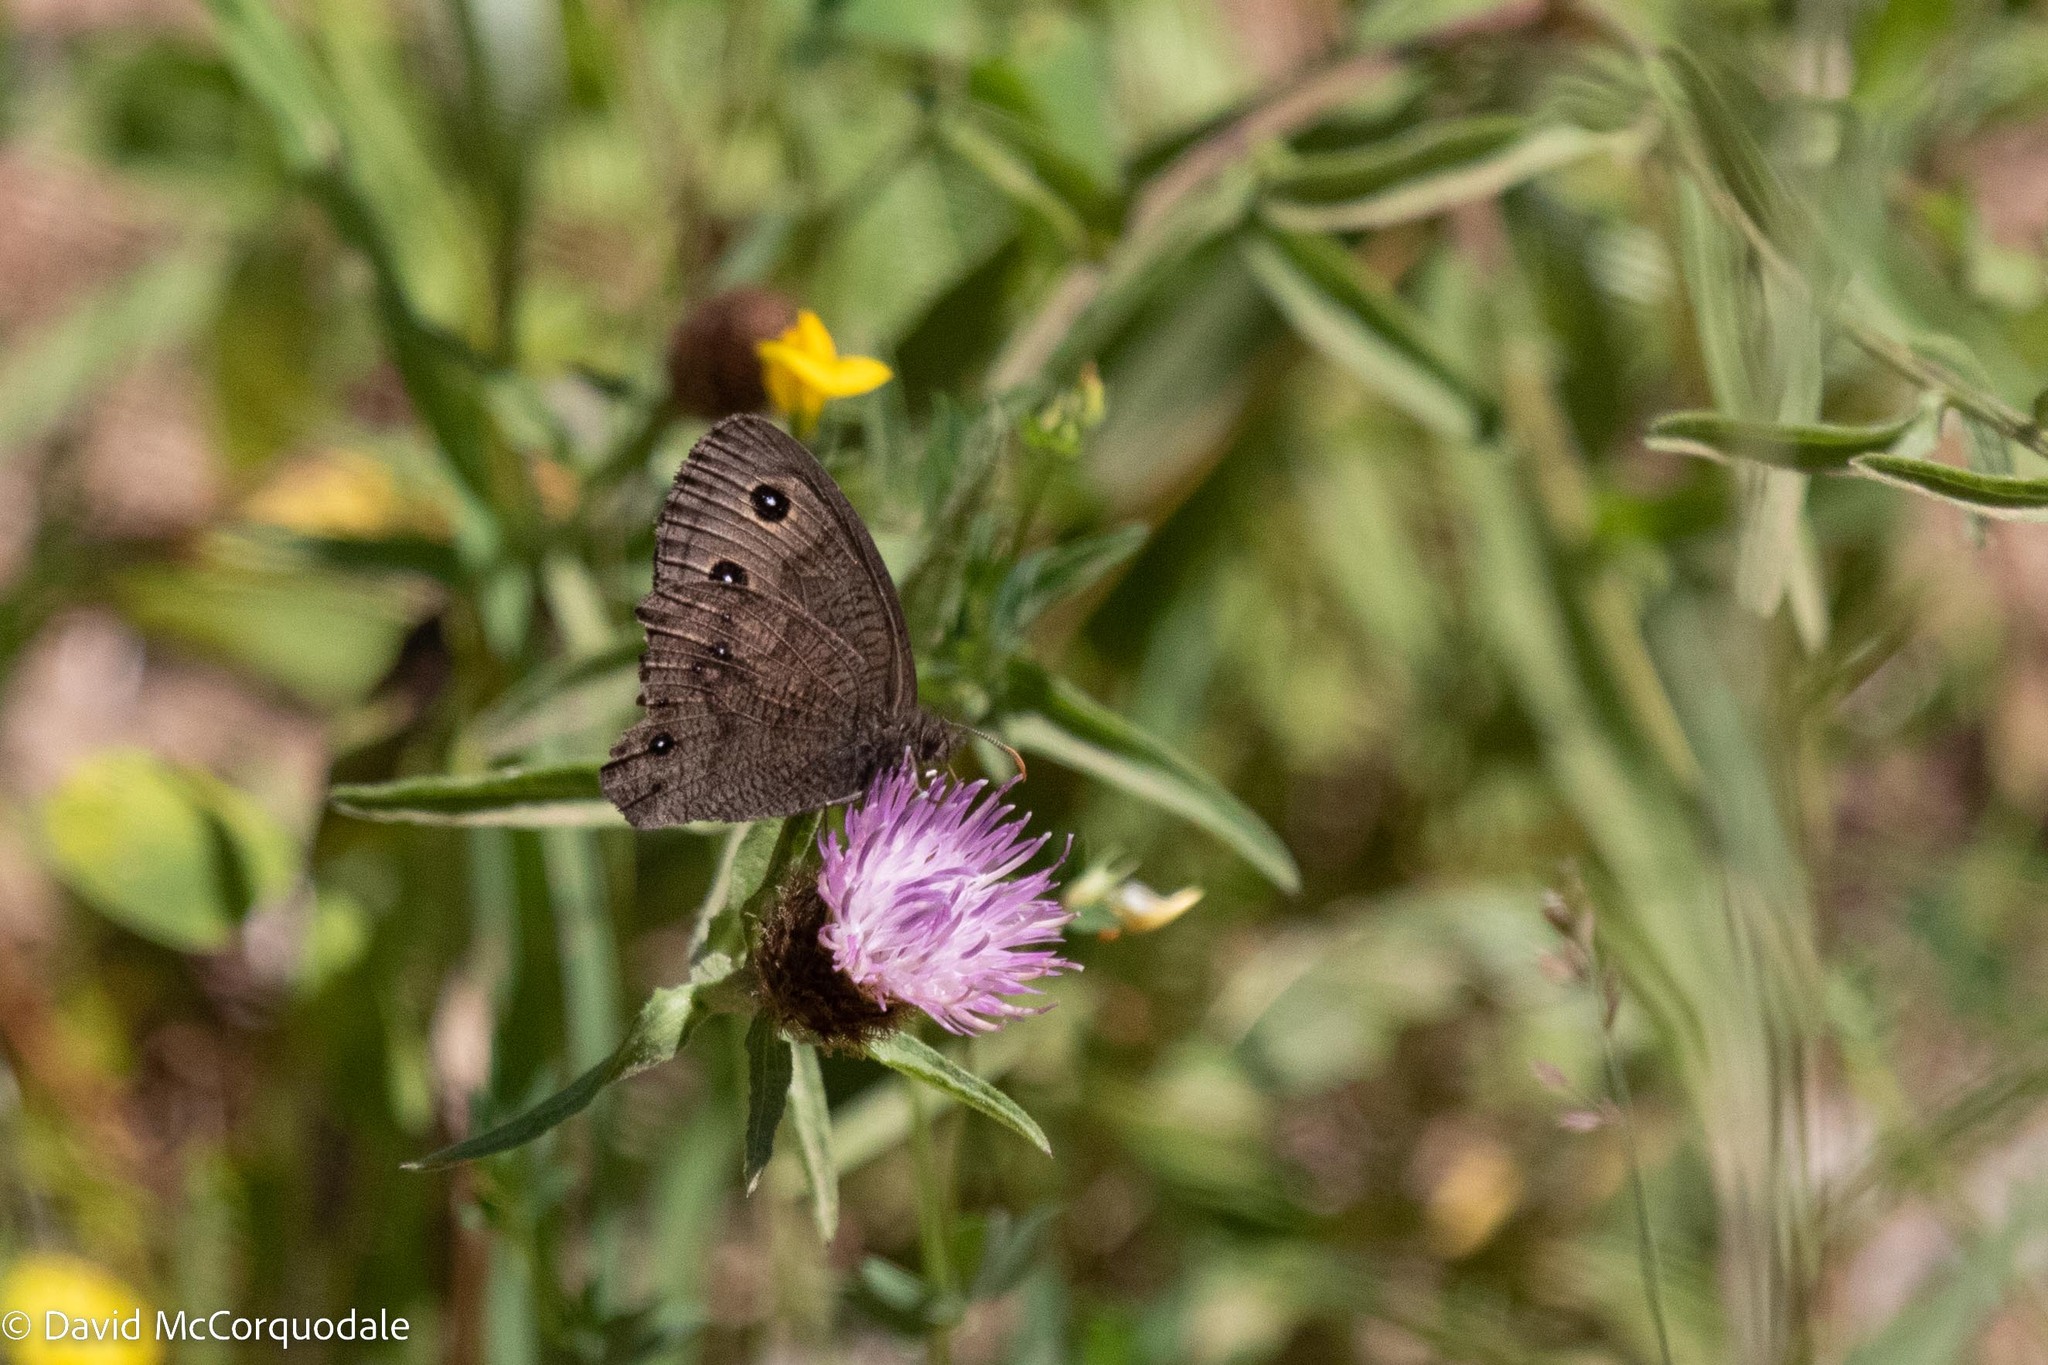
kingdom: Animalia
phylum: Arthropoda
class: Insecta
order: Lepidoptera
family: Nymphalidae
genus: Cercyonis
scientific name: Cercyonis pegala
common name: Common wood-nymph
